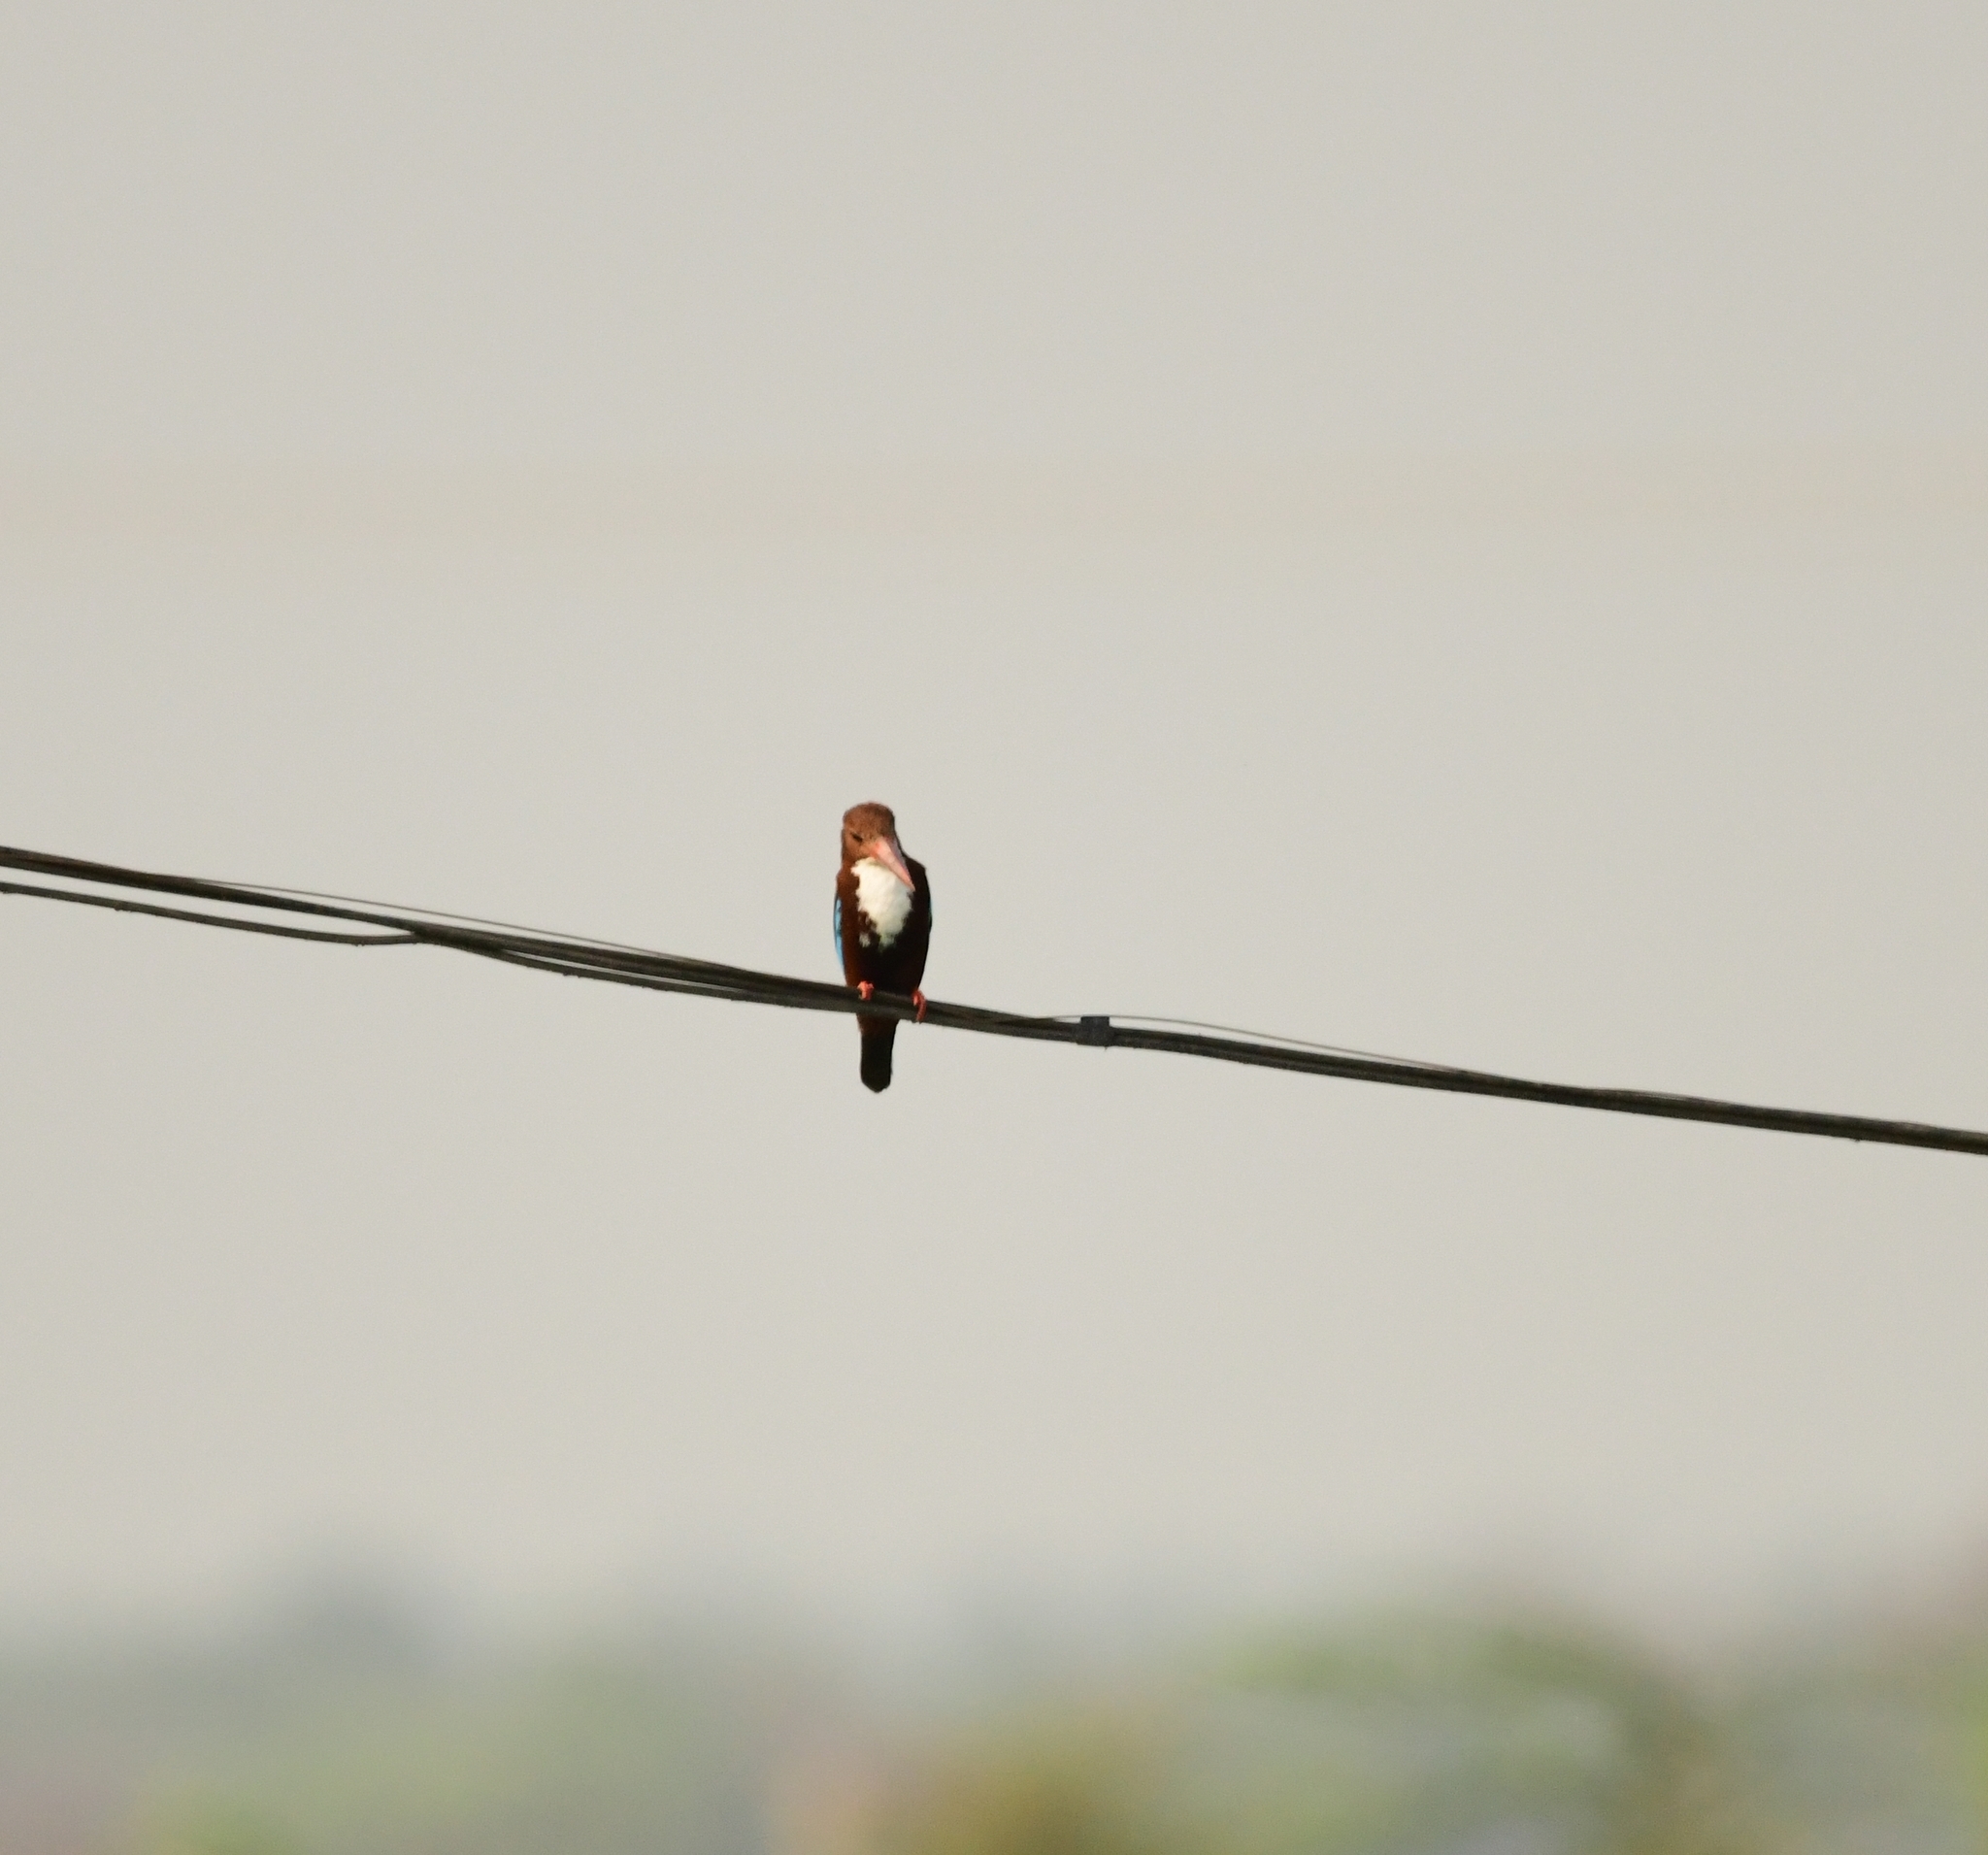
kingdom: Animalia
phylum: Chordata
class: Aves
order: Coraciiformes
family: Alcedinidae
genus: Halcyon
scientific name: Halcyon smyrnensis
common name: White-throated kingfisher
